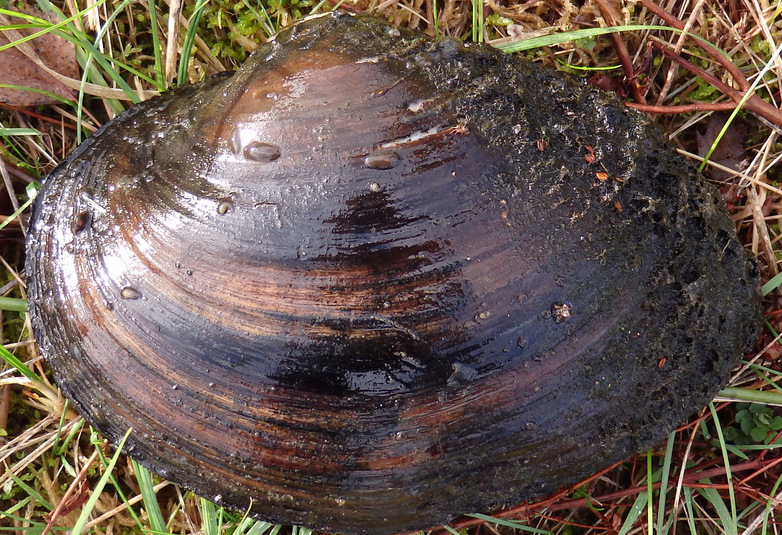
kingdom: Animalia
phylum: Mollusca
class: Bivalvia
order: Unionida
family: Unionidae
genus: Sinanodonta
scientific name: Sinanodonta woodiana
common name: Chinese pond mussel
